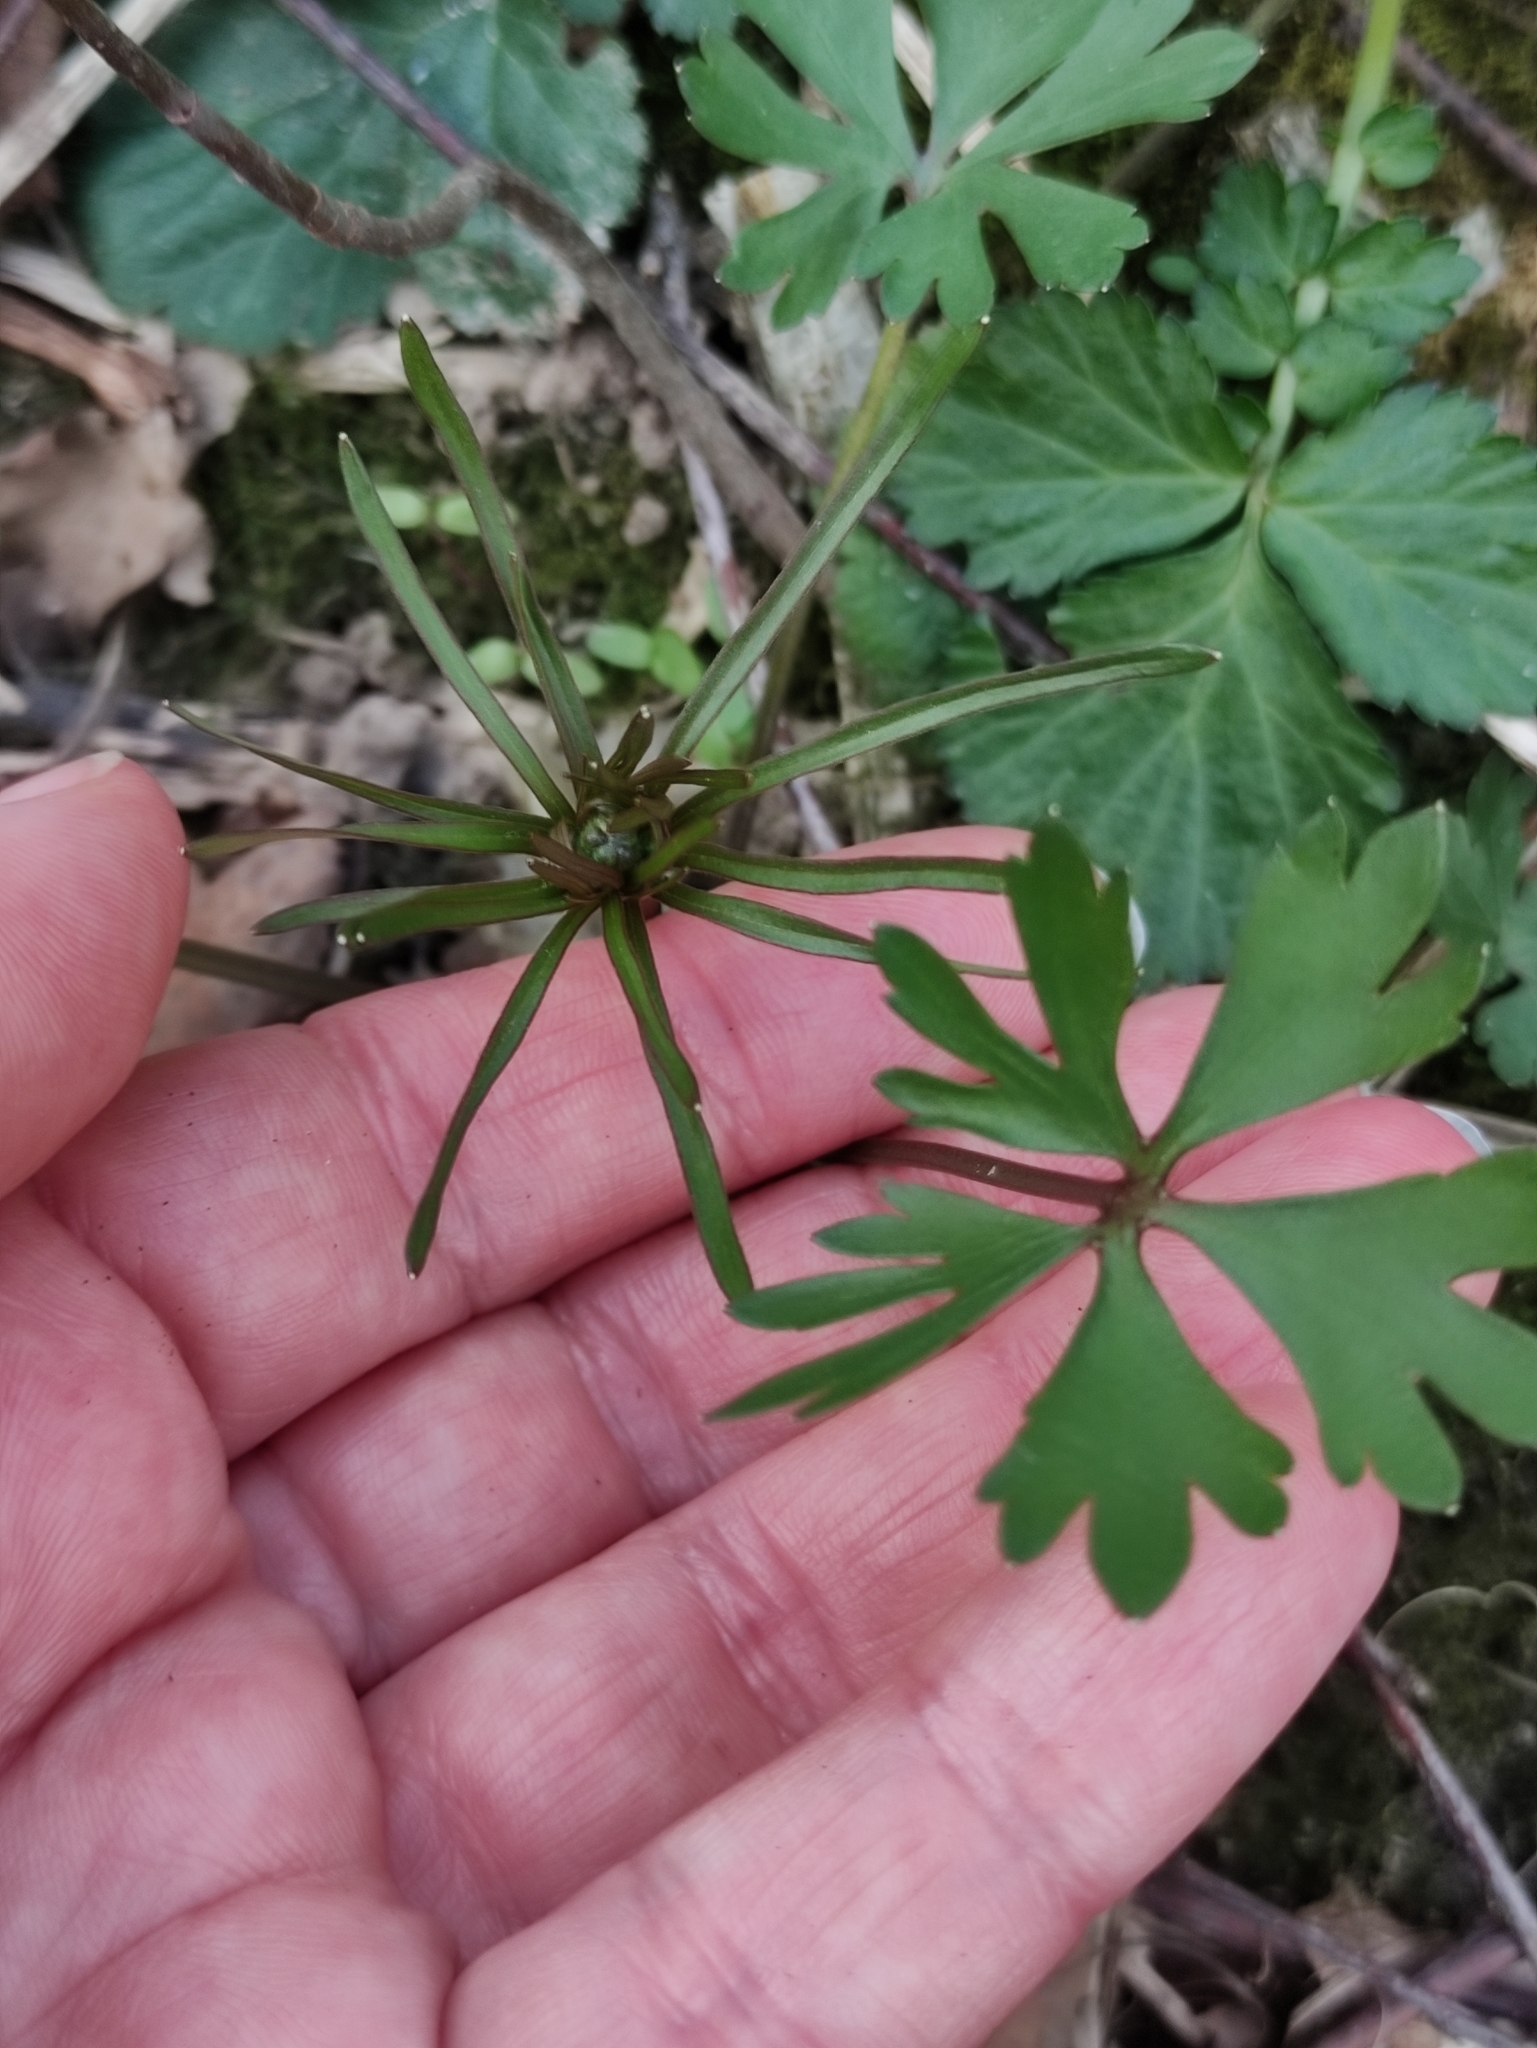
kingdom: Plantae
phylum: Tracheophyta
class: Magnoliopsida
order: Ranunculales
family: Ranunculaceae
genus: Ranunculus
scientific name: Ranunculus auricomus
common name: Goldilocks buttercup
